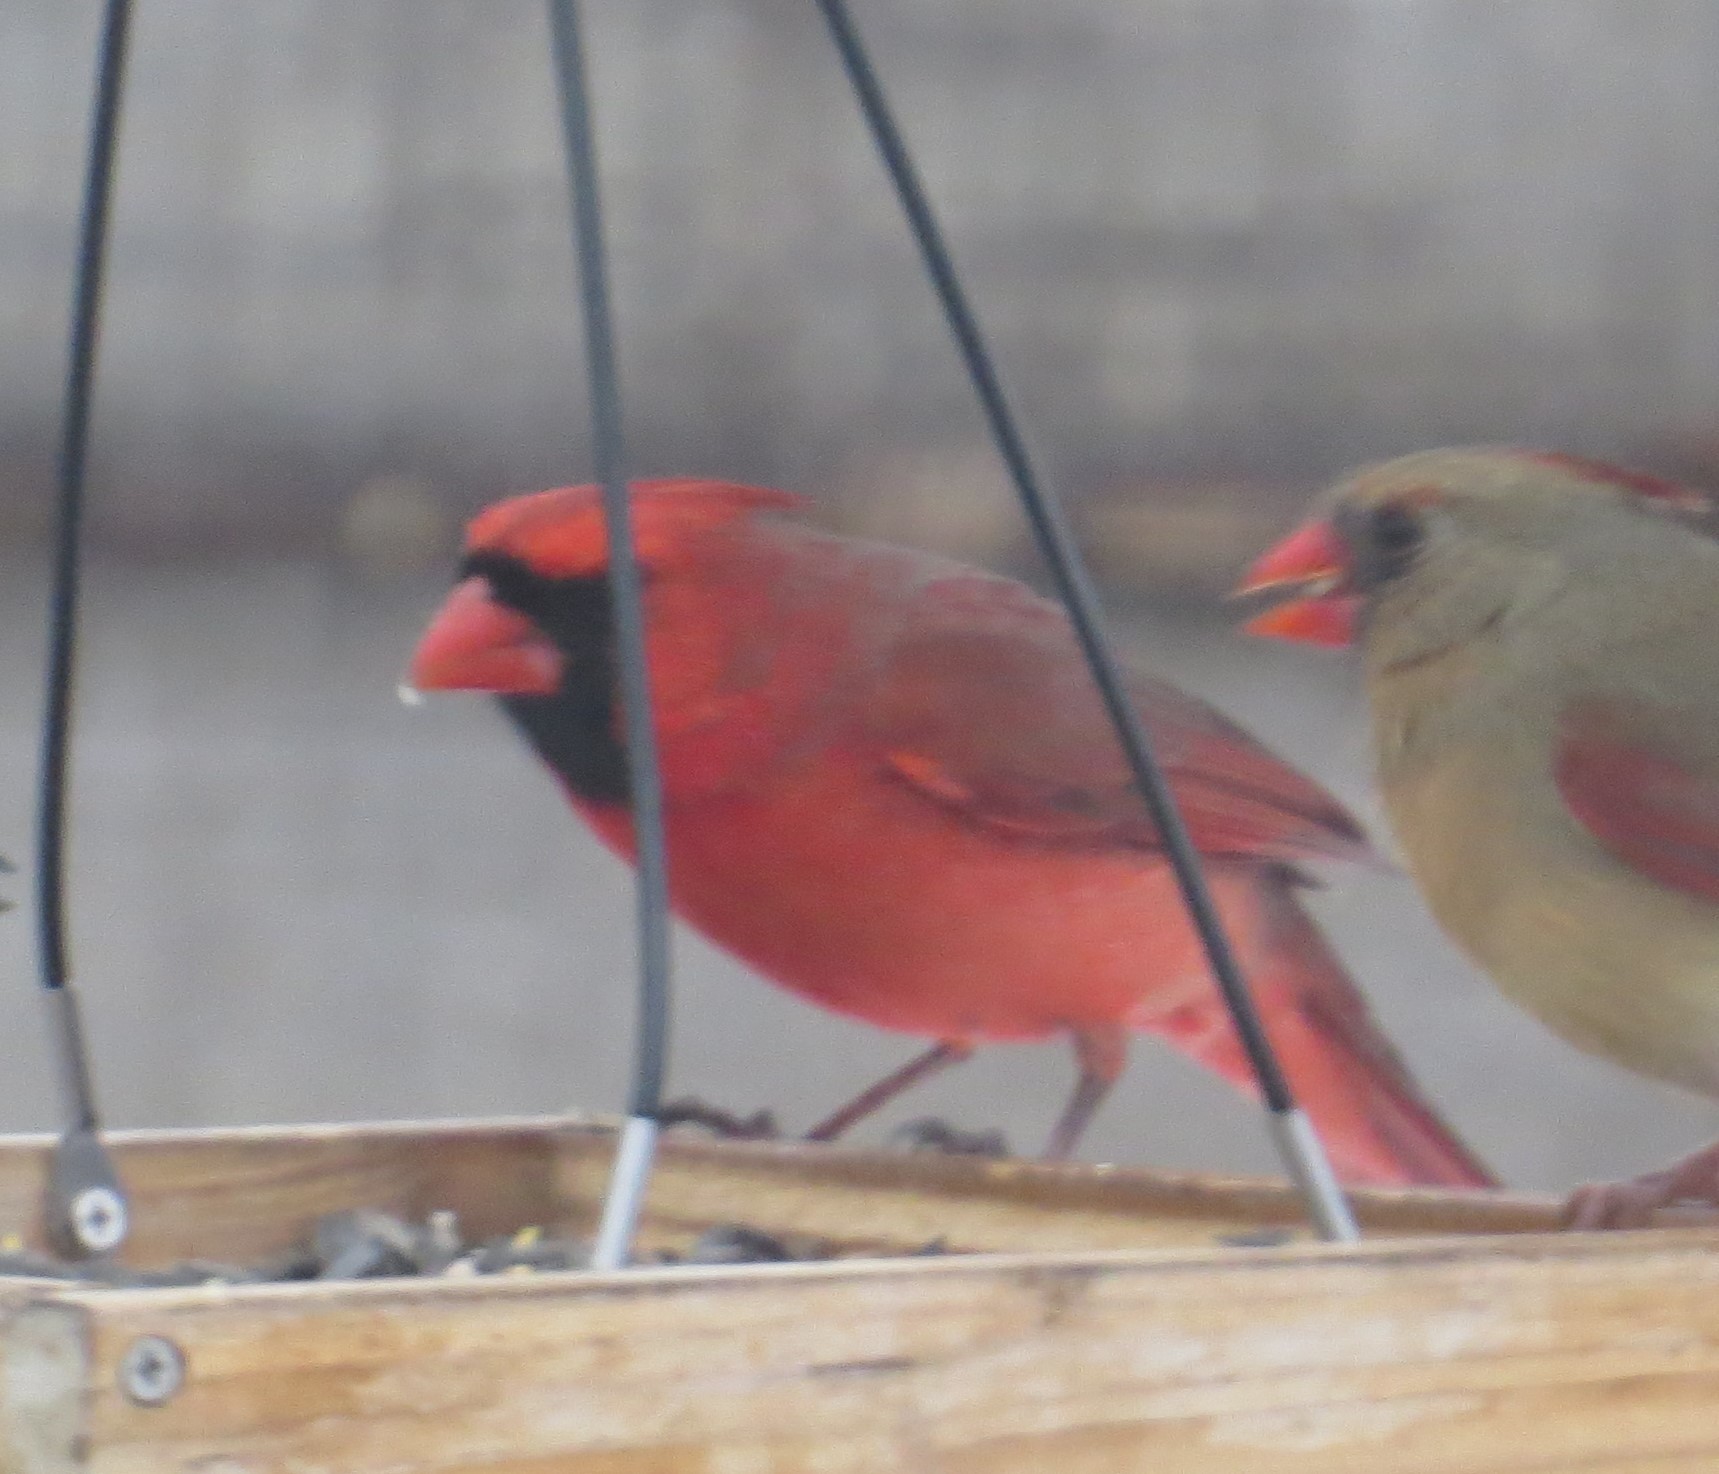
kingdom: Animalia
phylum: Chordata
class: Aves
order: Passeriformes
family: Cardinalidae
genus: Cardinalis
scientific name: Cardinalis cardinalis
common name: Northern cardinal
